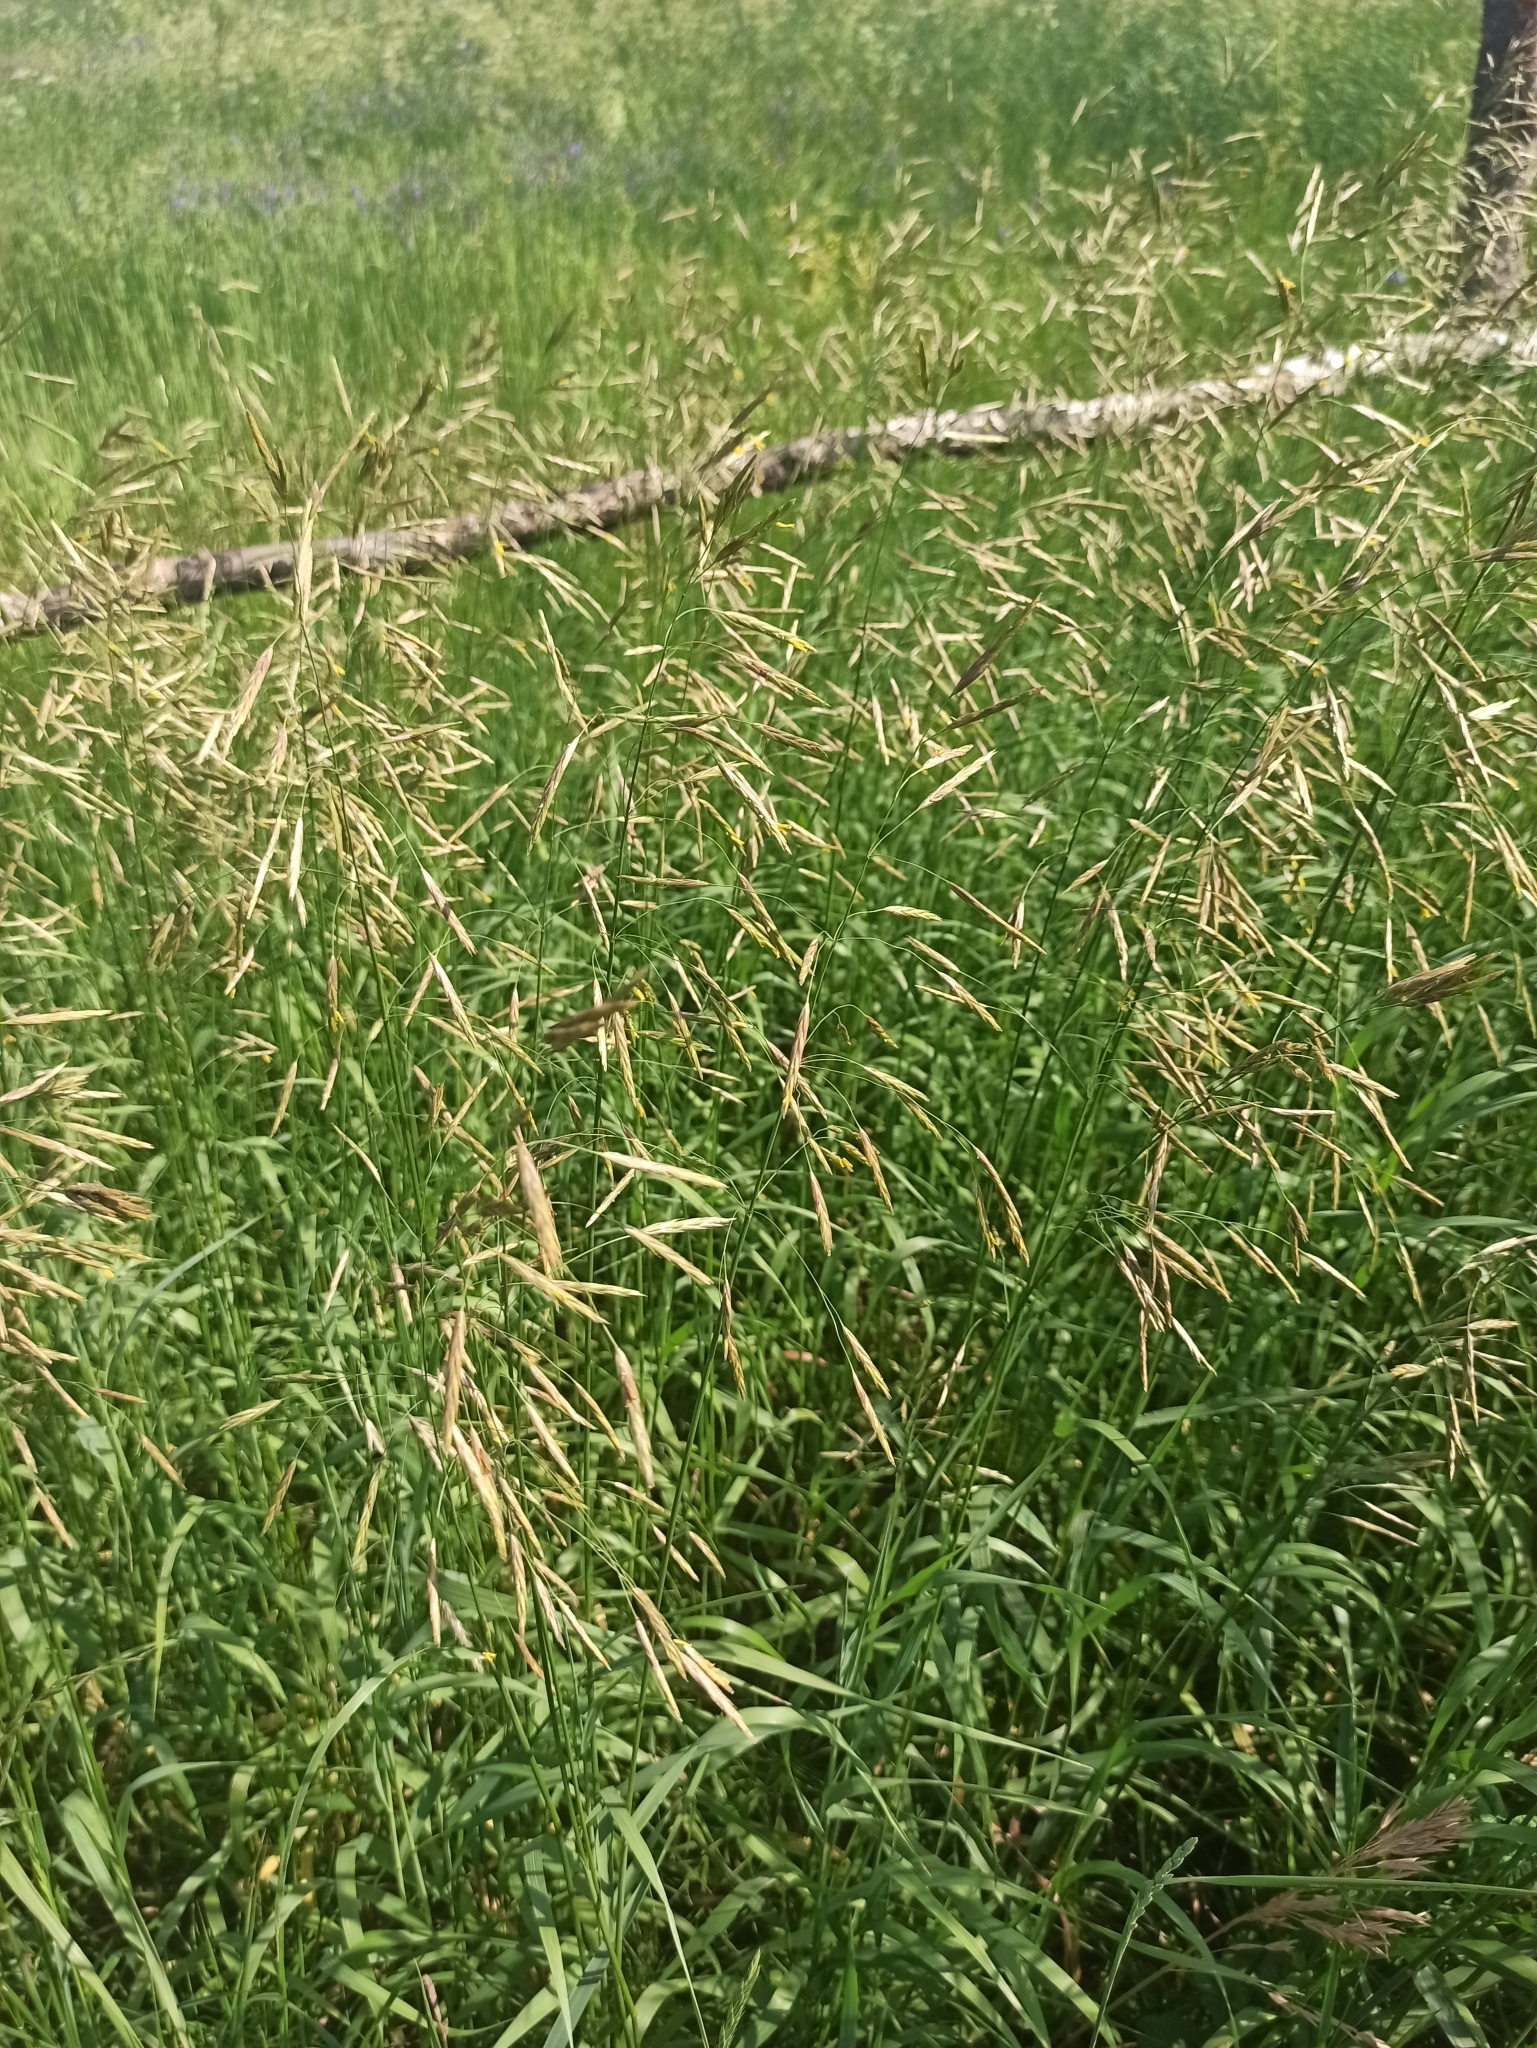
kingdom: Plantae
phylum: Tracheophyta
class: Liliopsida
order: Poales
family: Poaceae
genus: Bromus
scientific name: Bromus inermis
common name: Smooth brome
